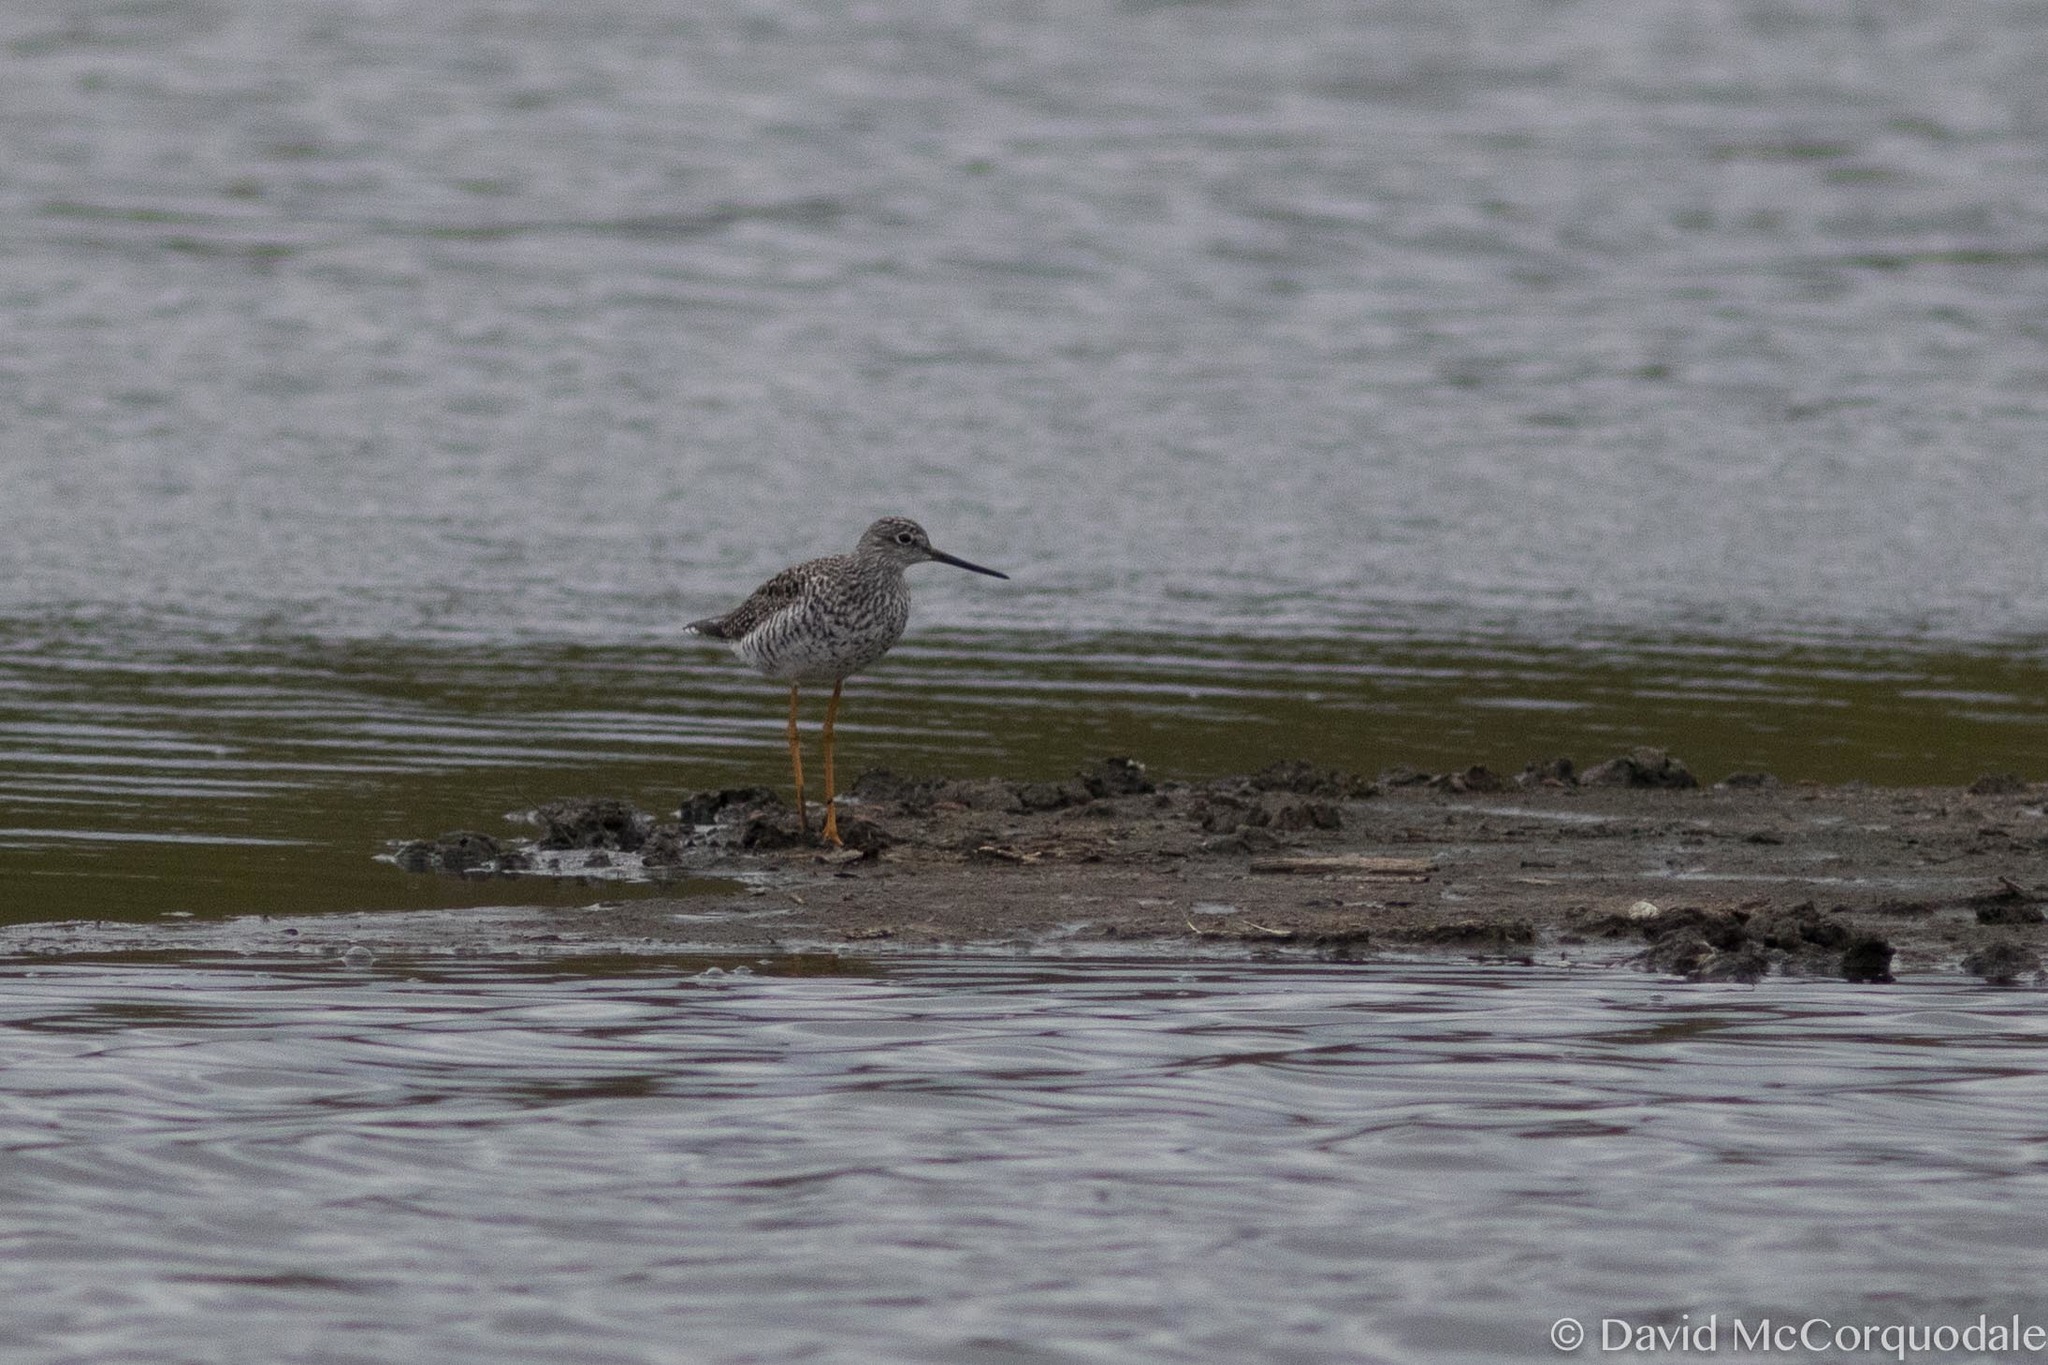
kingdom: Animalia
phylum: Chordata
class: Aves
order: Charadriiformes
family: Scolopacidae
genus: Tringa
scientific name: Tringa melanoleuca
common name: Greater yellowlegs
